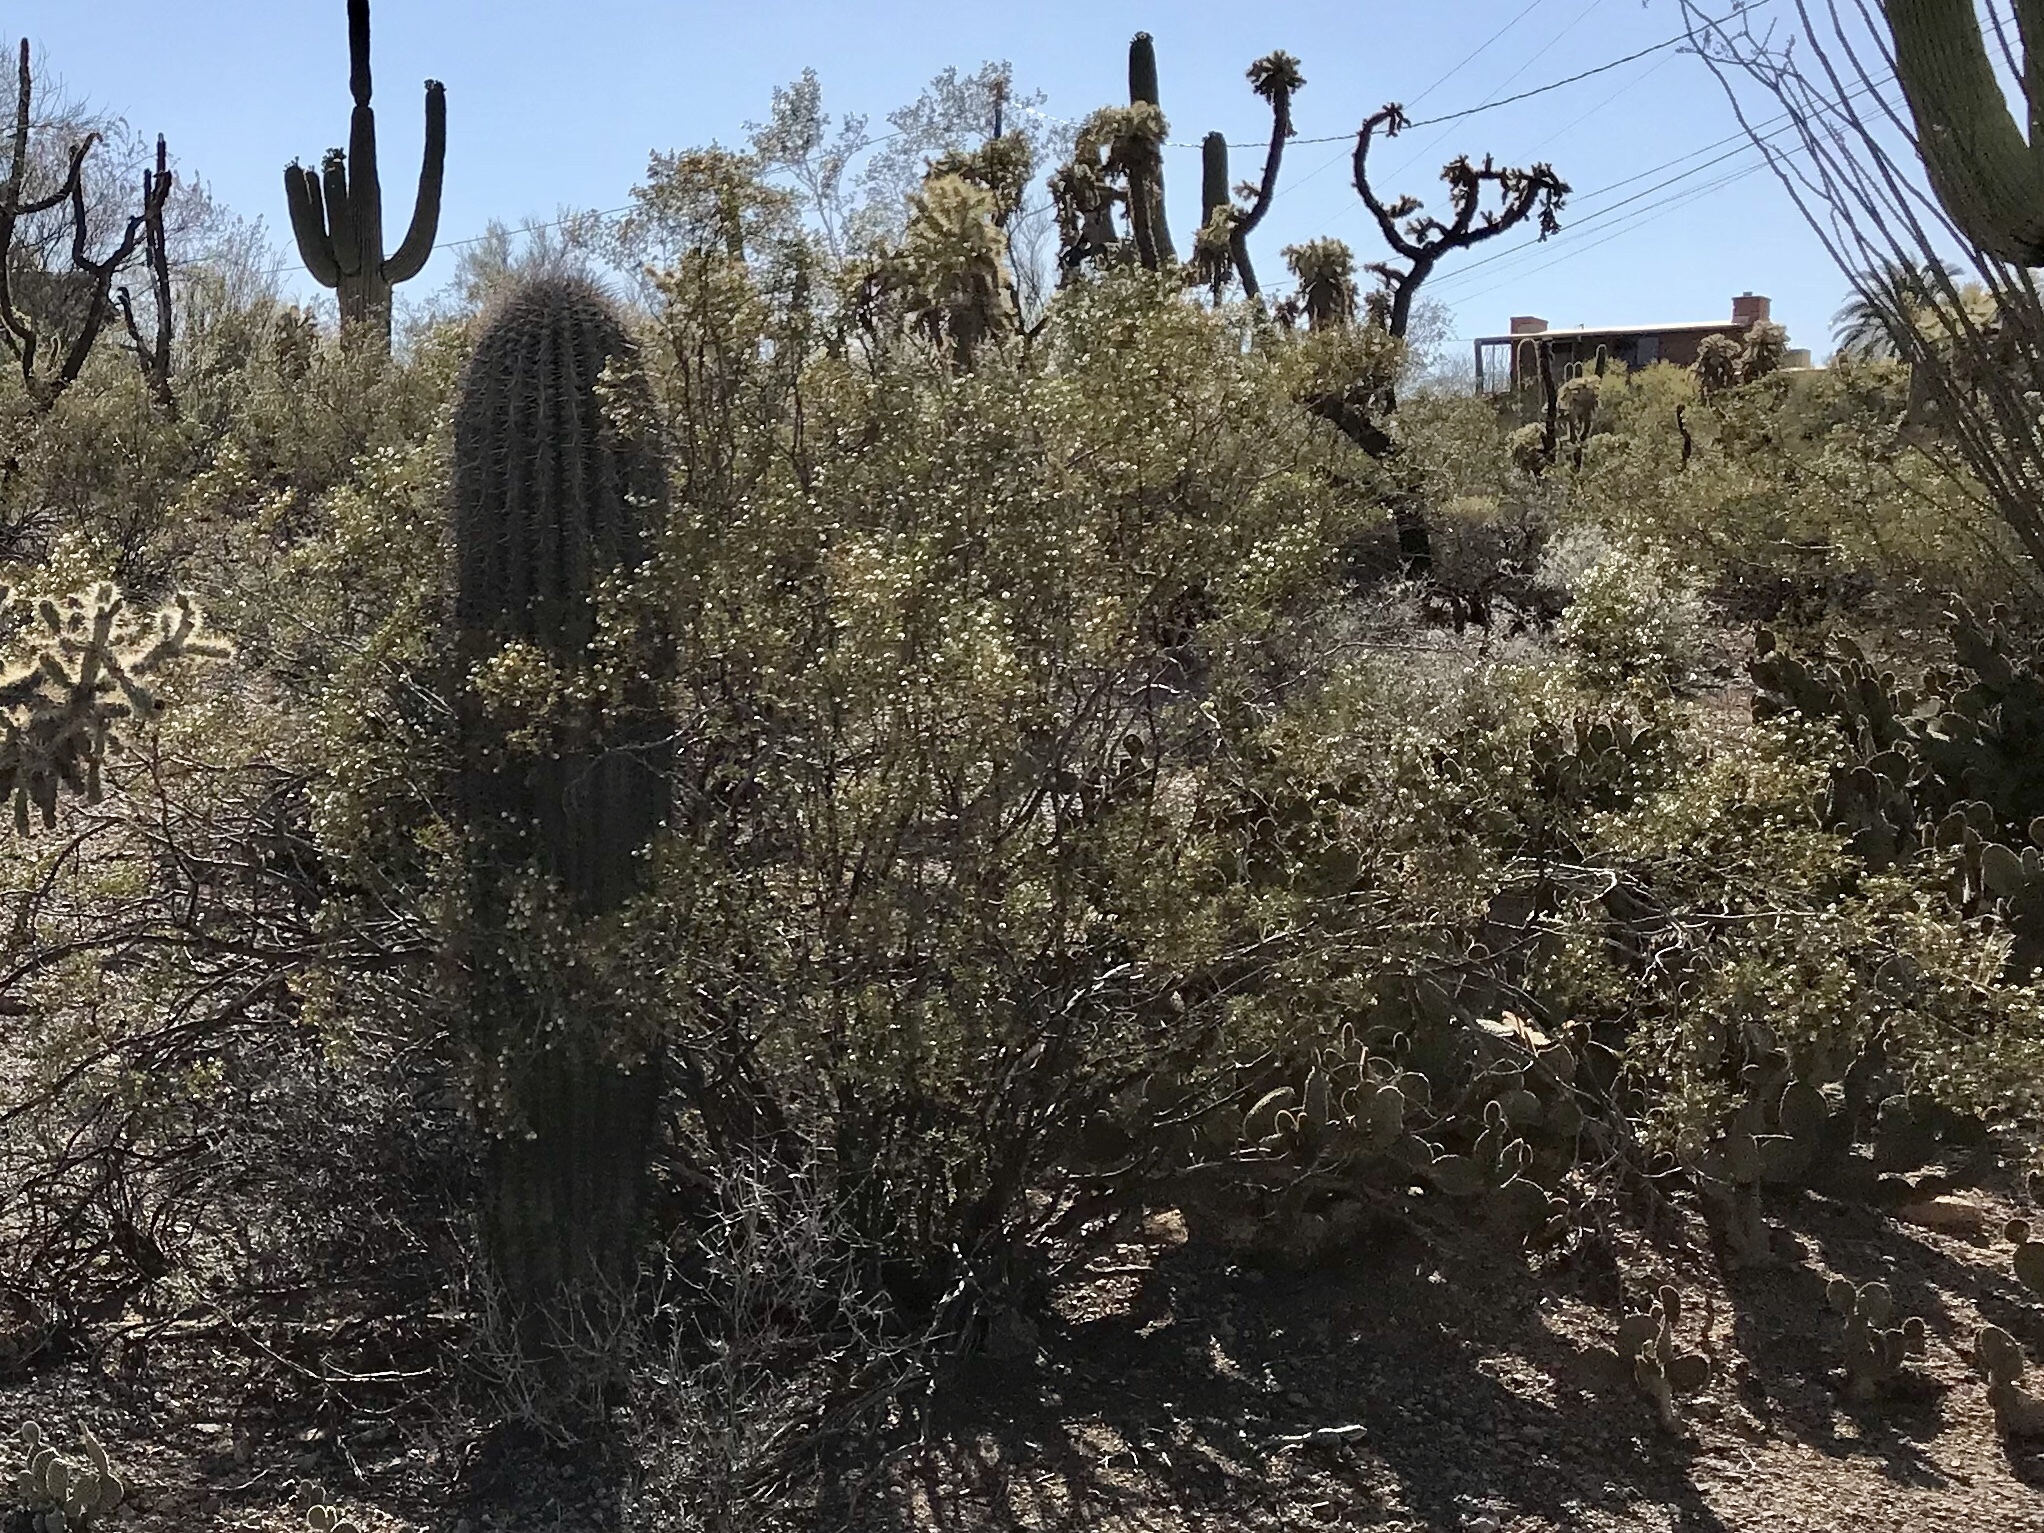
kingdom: Plantae
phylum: Tracheophyta
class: Magnoliopsida
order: Zygophyllales
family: Zygophyllaceae
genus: Larrea
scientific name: Larrea tridentata
